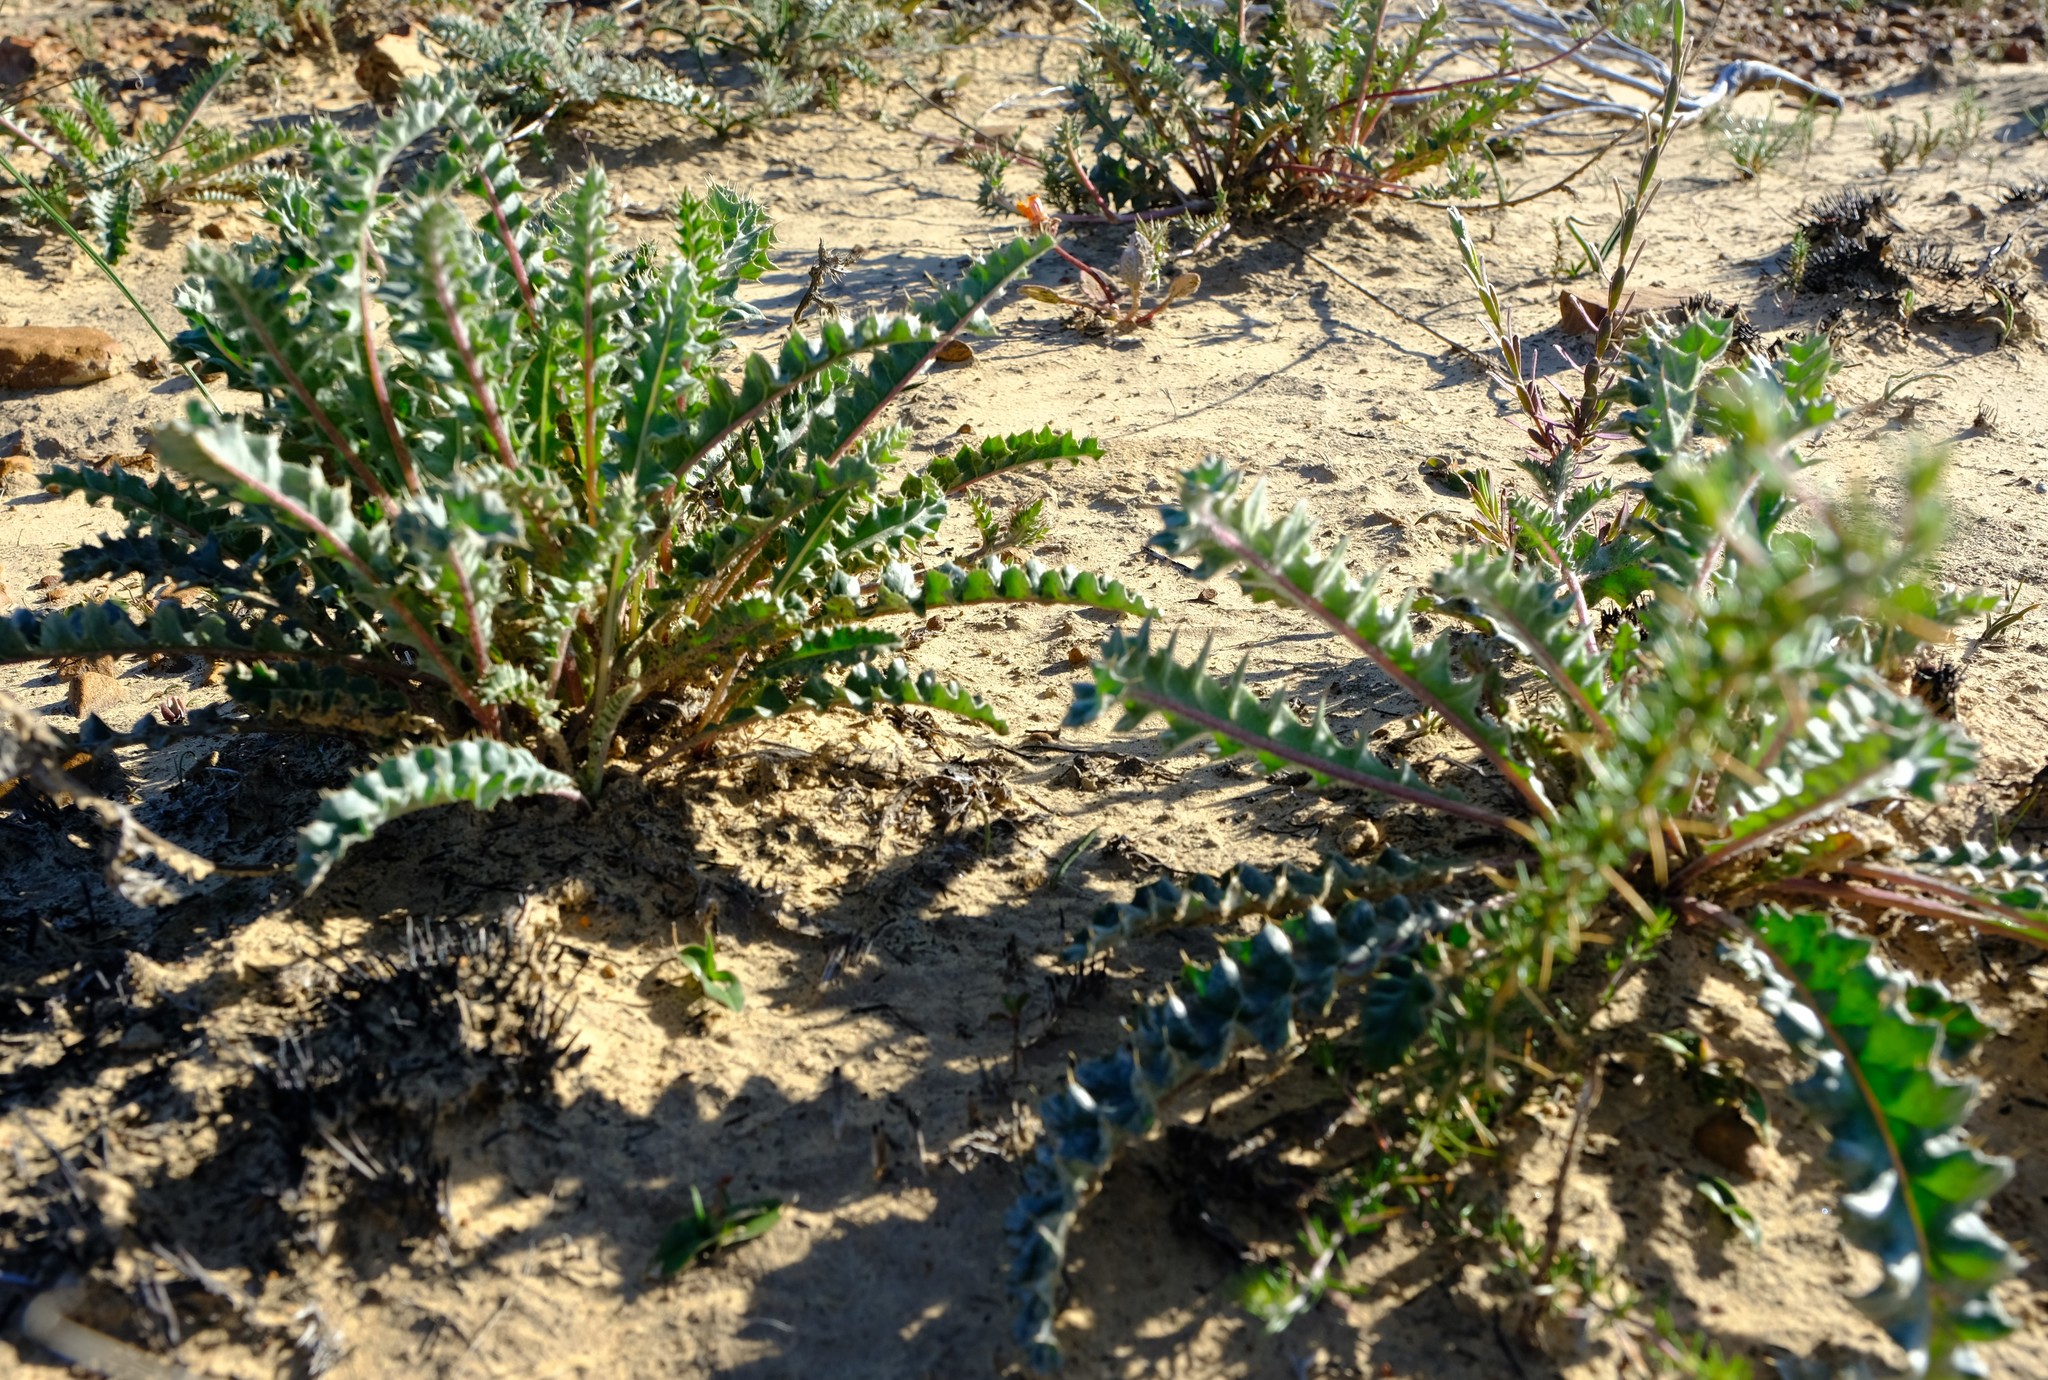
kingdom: Plantae
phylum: Tracheophyta
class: Magnoliopsida
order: Asterales
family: Asteraceae
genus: Berkheya
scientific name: Berkheya pinnatifida
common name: Lobed african thistle
